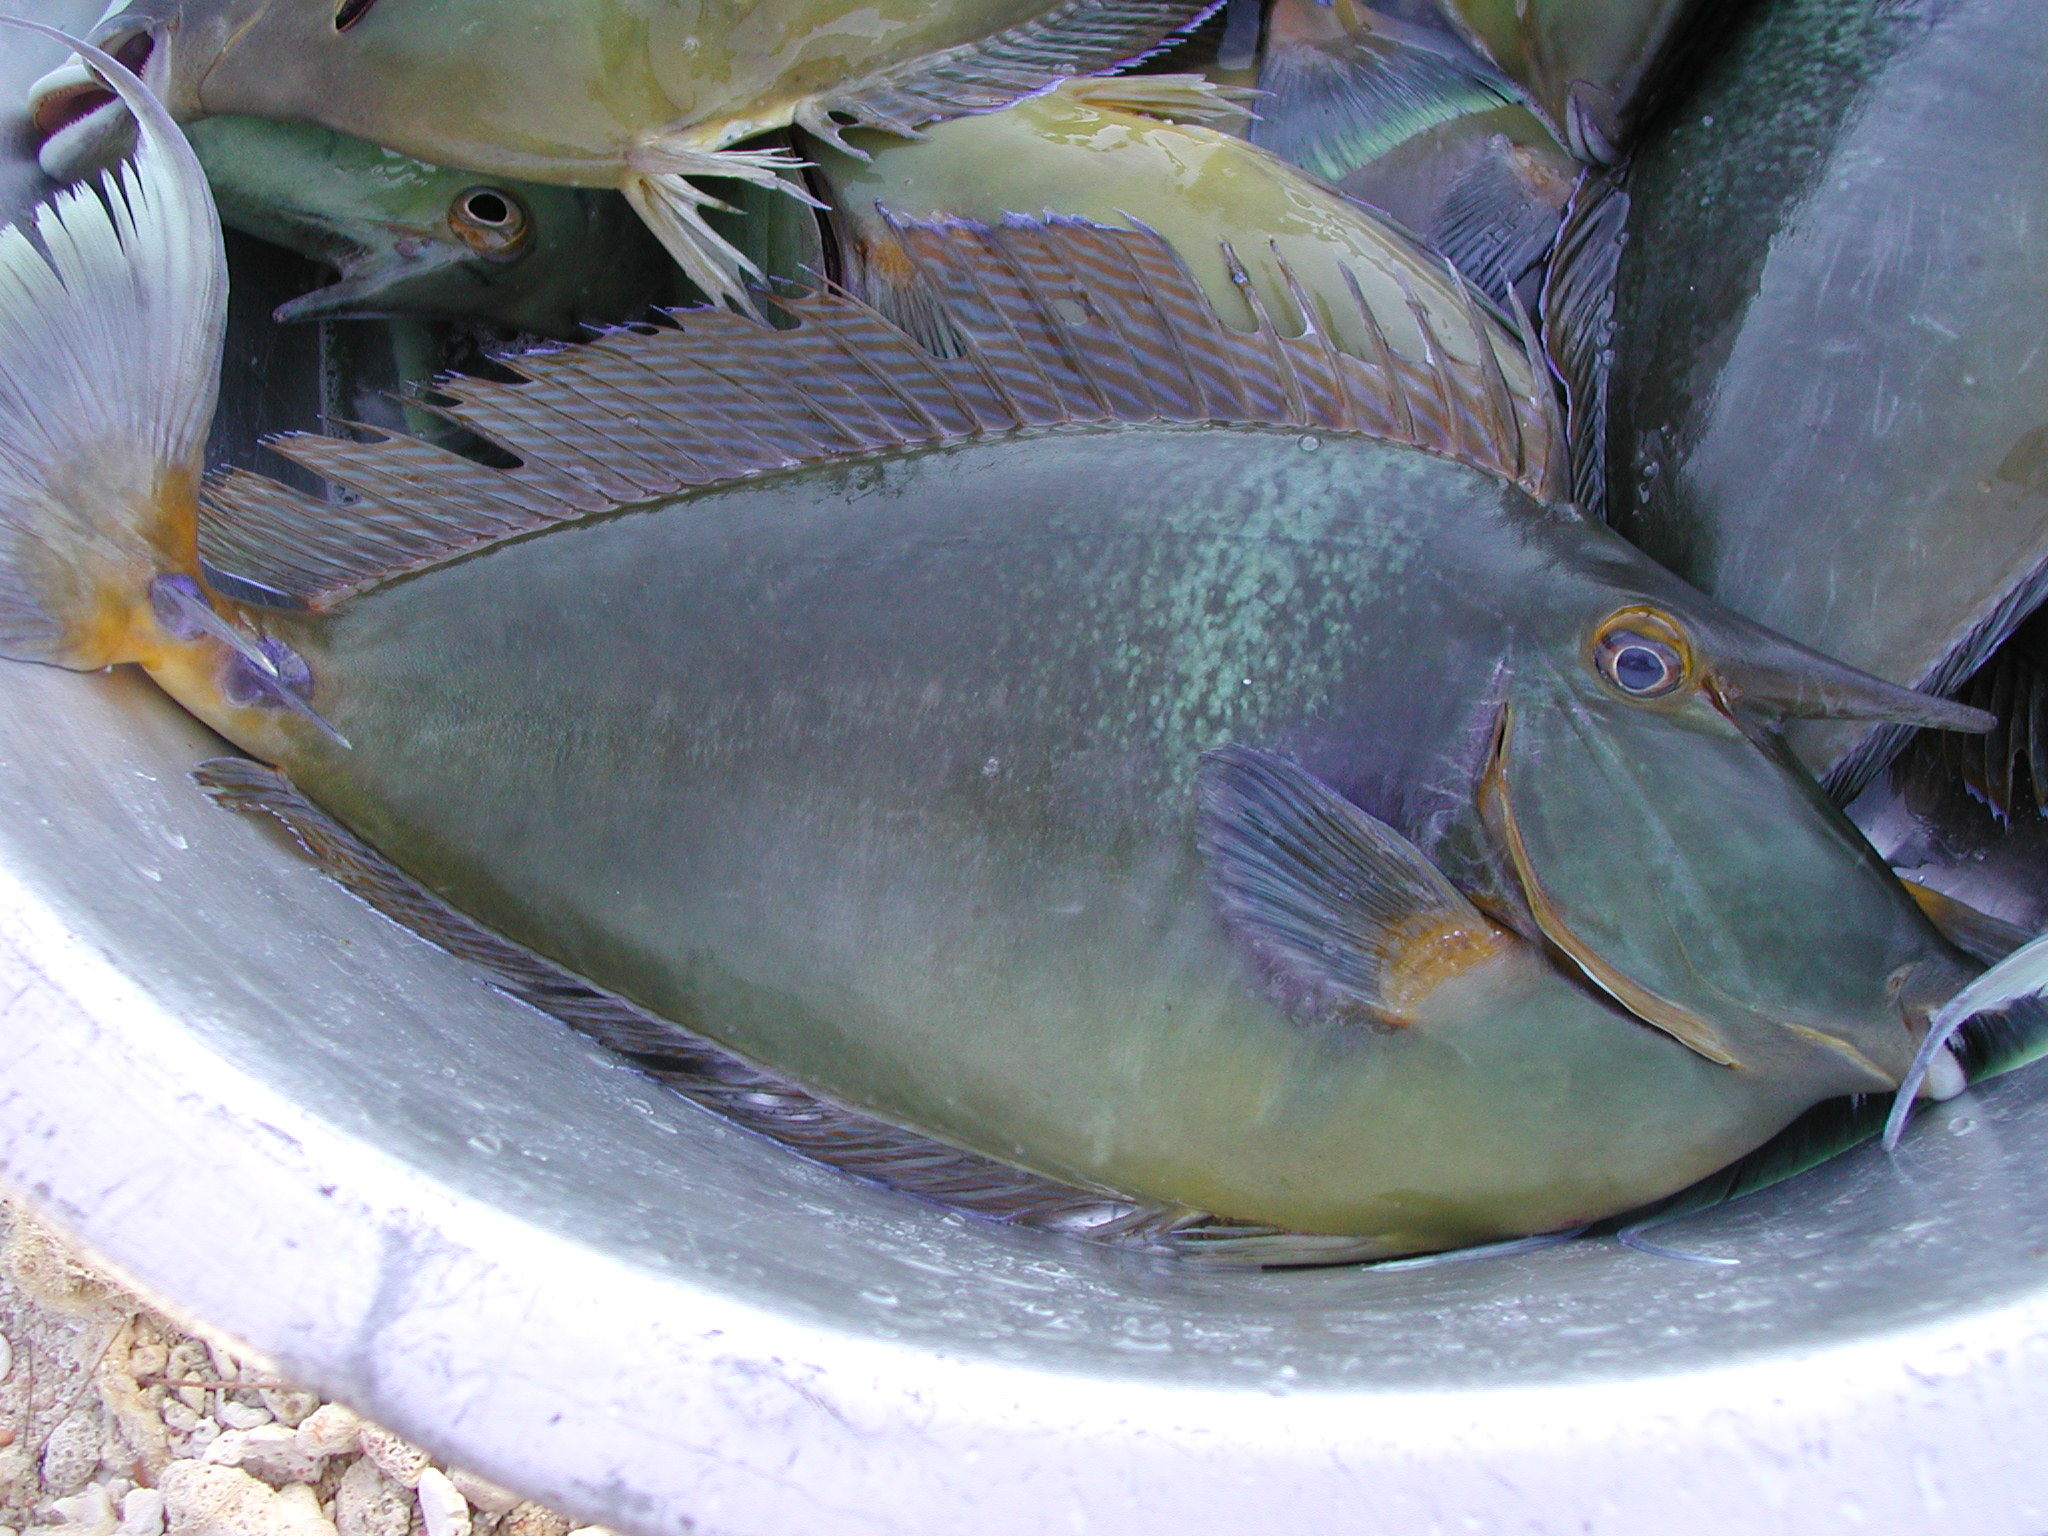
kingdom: Animalia
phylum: Chordata
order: Perciformes
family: Acanthuridae
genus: Naso
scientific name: Naso unicornis
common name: Bluespine unicornfish
